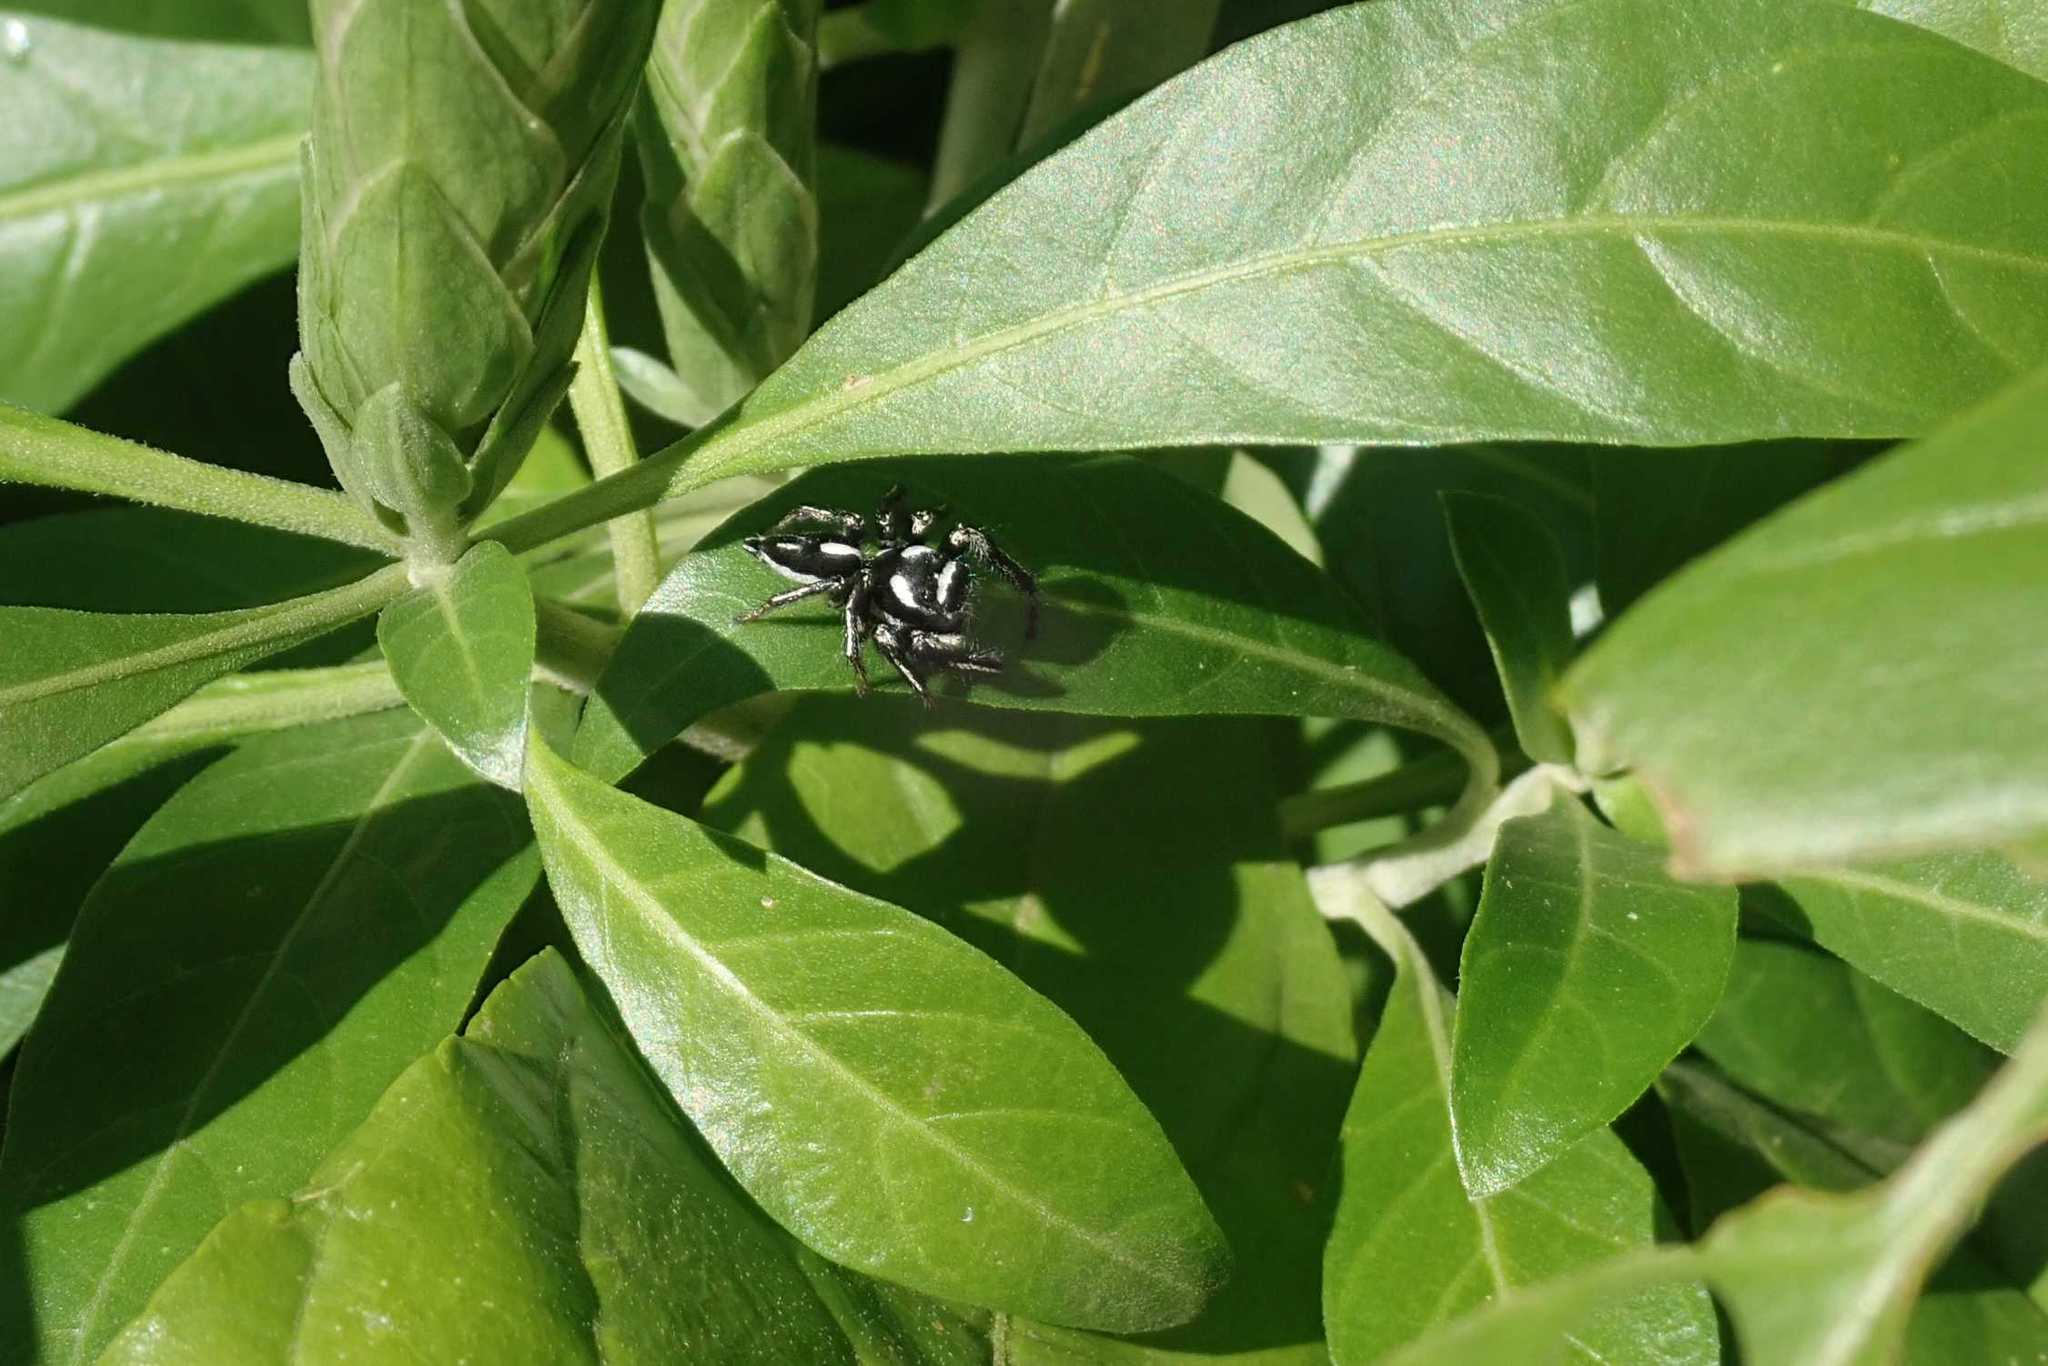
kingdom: Animalia
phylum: Arthropoda
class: Arachnida
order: Araneae
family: Salticidae
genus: Hyllus
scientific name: Hyllus argyrotoxus
